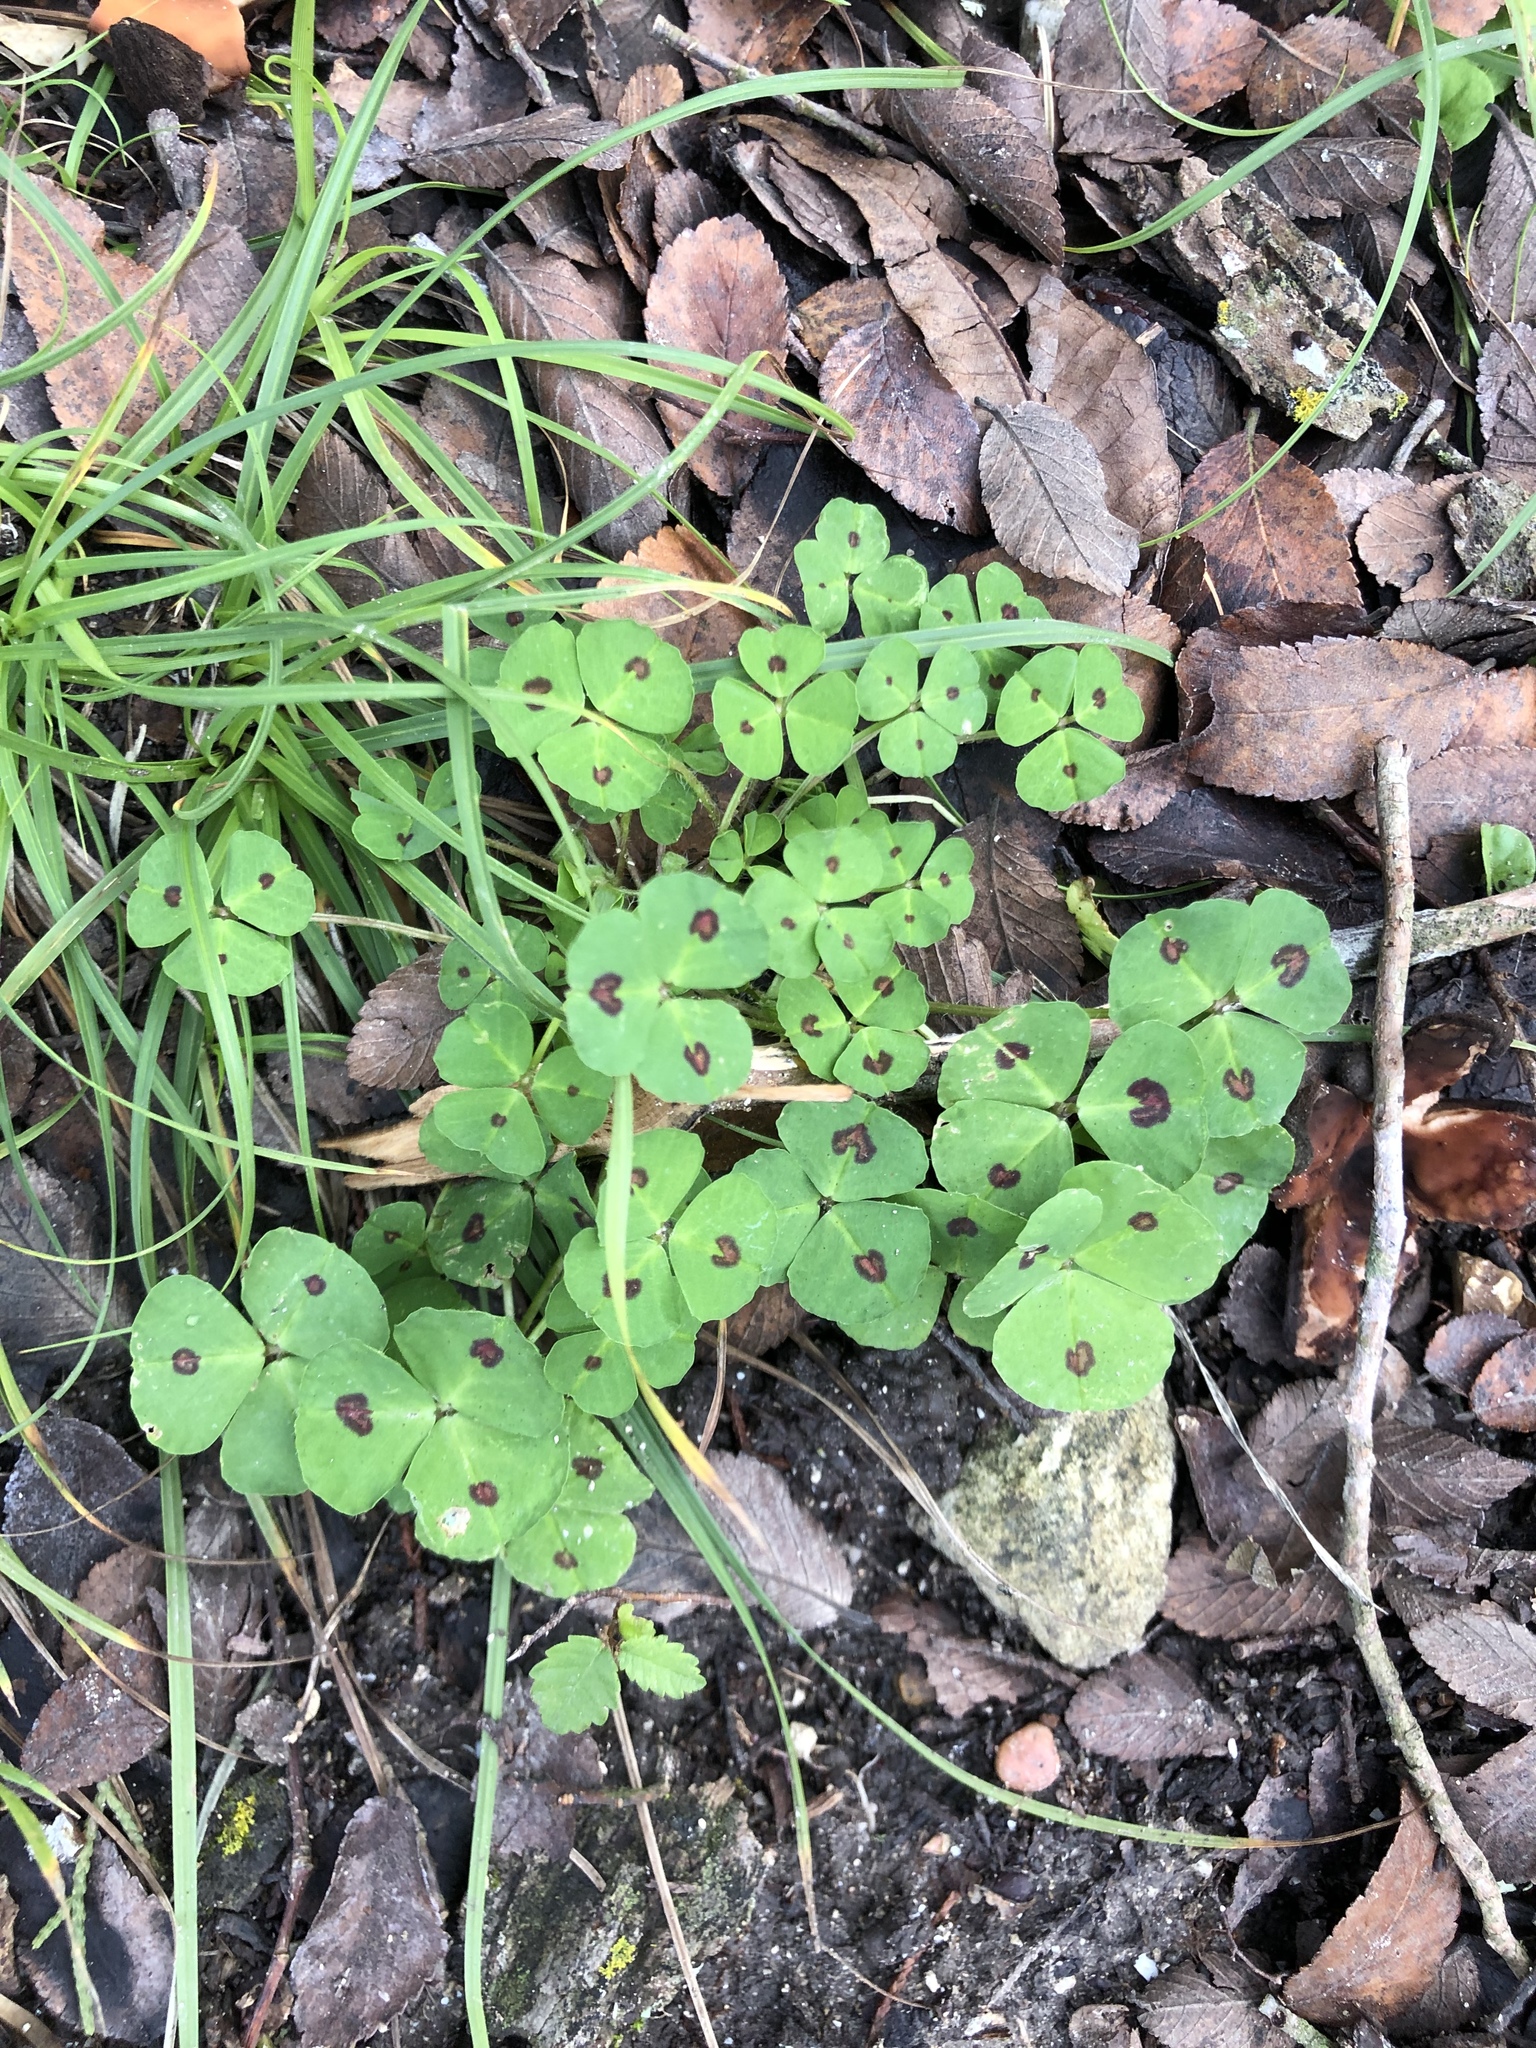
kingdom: Plantae
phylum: Tracheophyta
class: Magnoliopsida
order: Fabales
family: Fabaceae
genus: Medicago
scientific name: Medicago arabica
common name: Spotted medick
